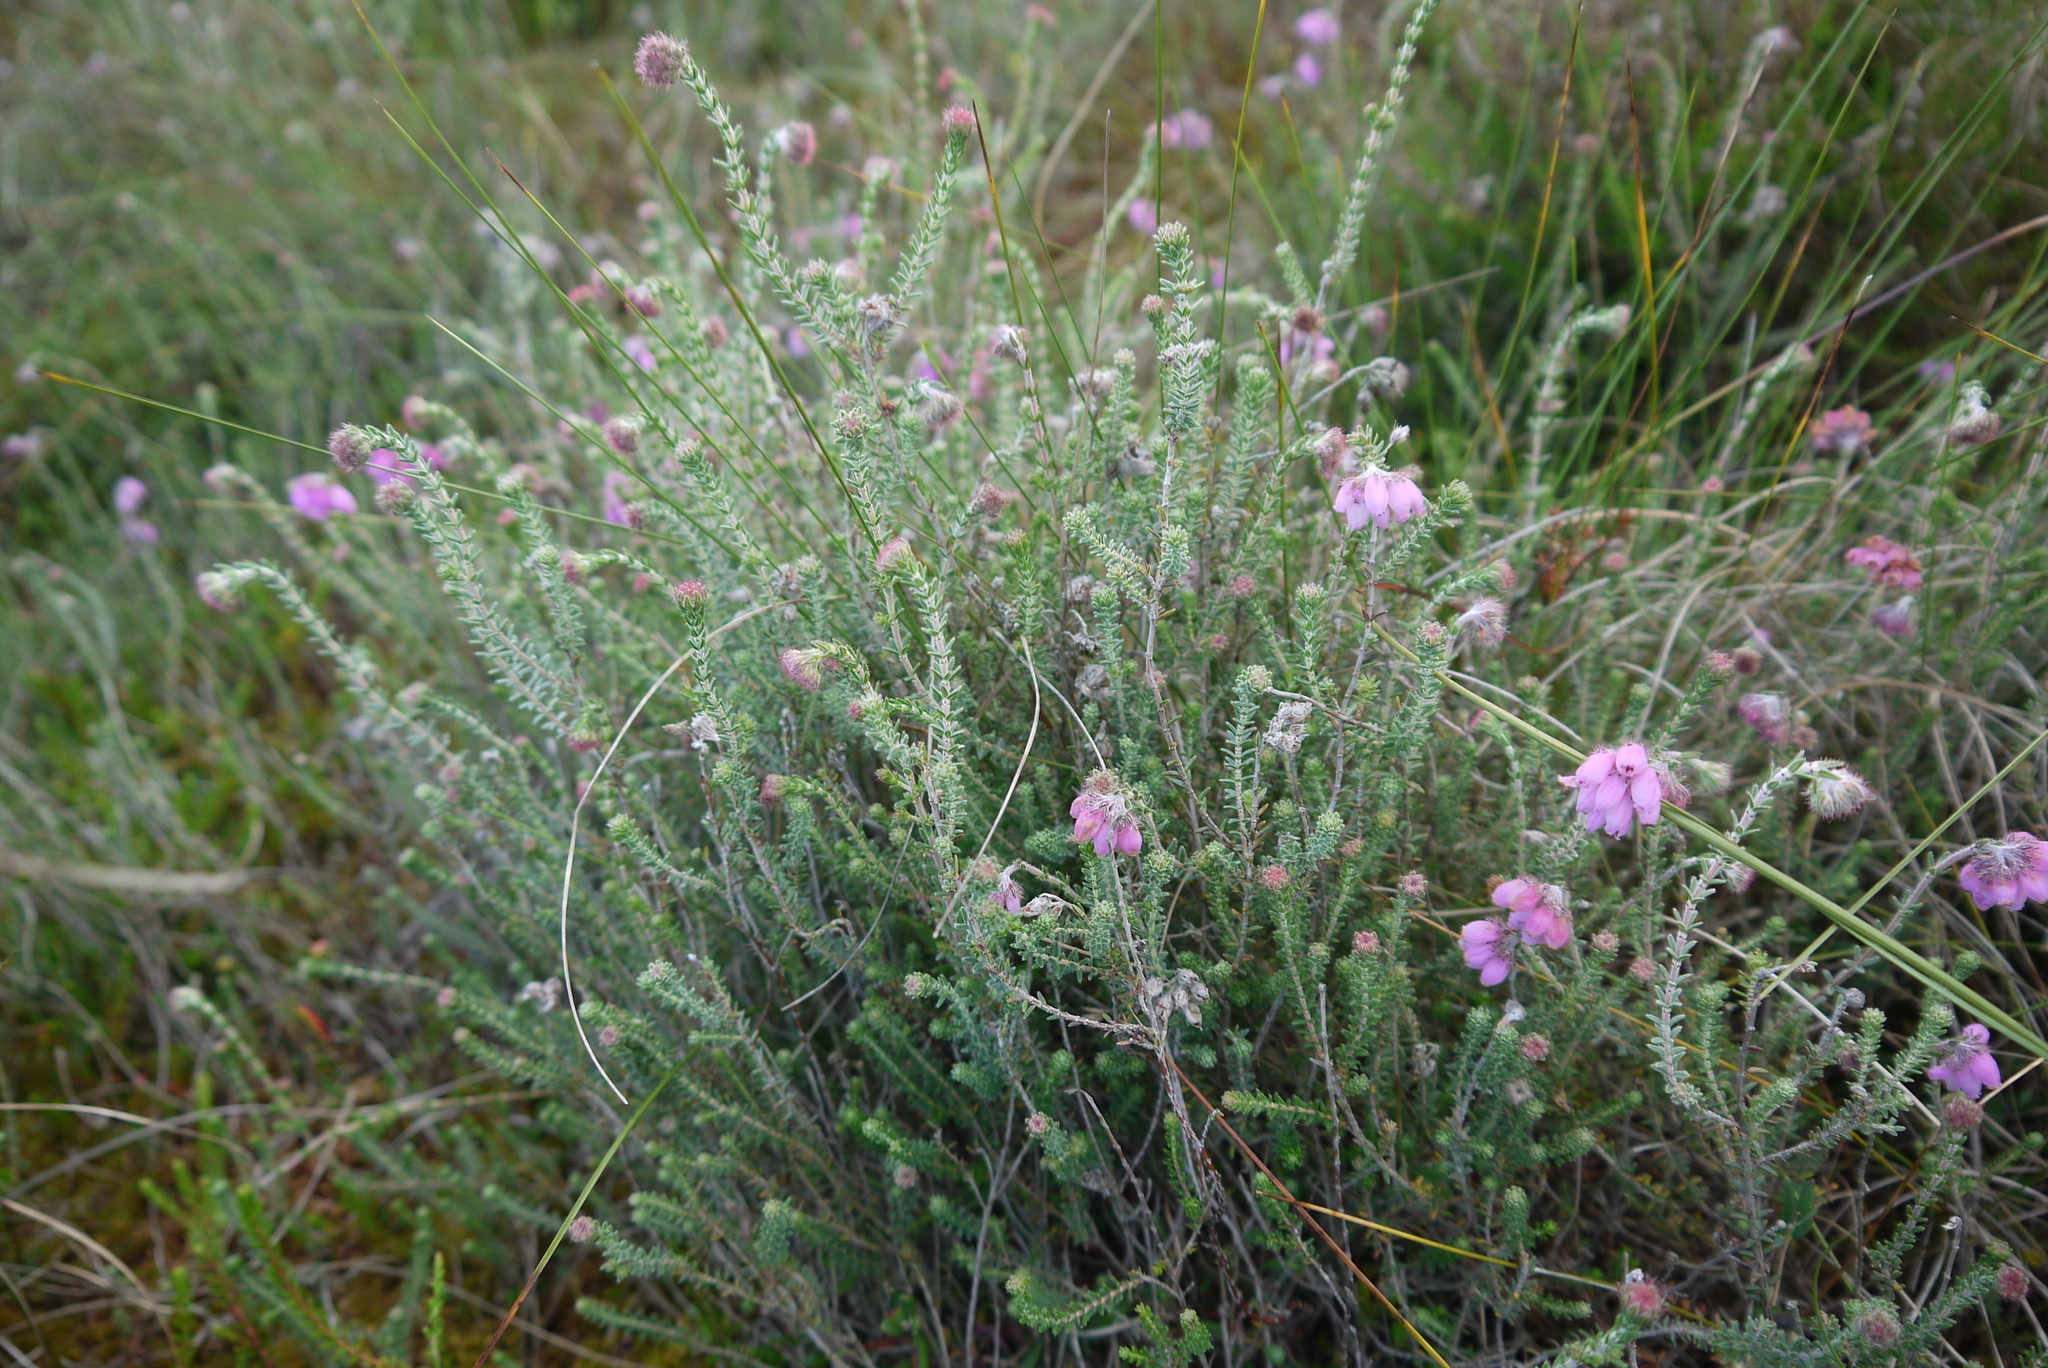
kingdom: Plantae
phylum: Tracheophyta
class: Magnoliopsida
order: Ericales
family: Ericaceae
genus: Erica
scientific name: Erica tetralix
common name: Cross-leaved heath
